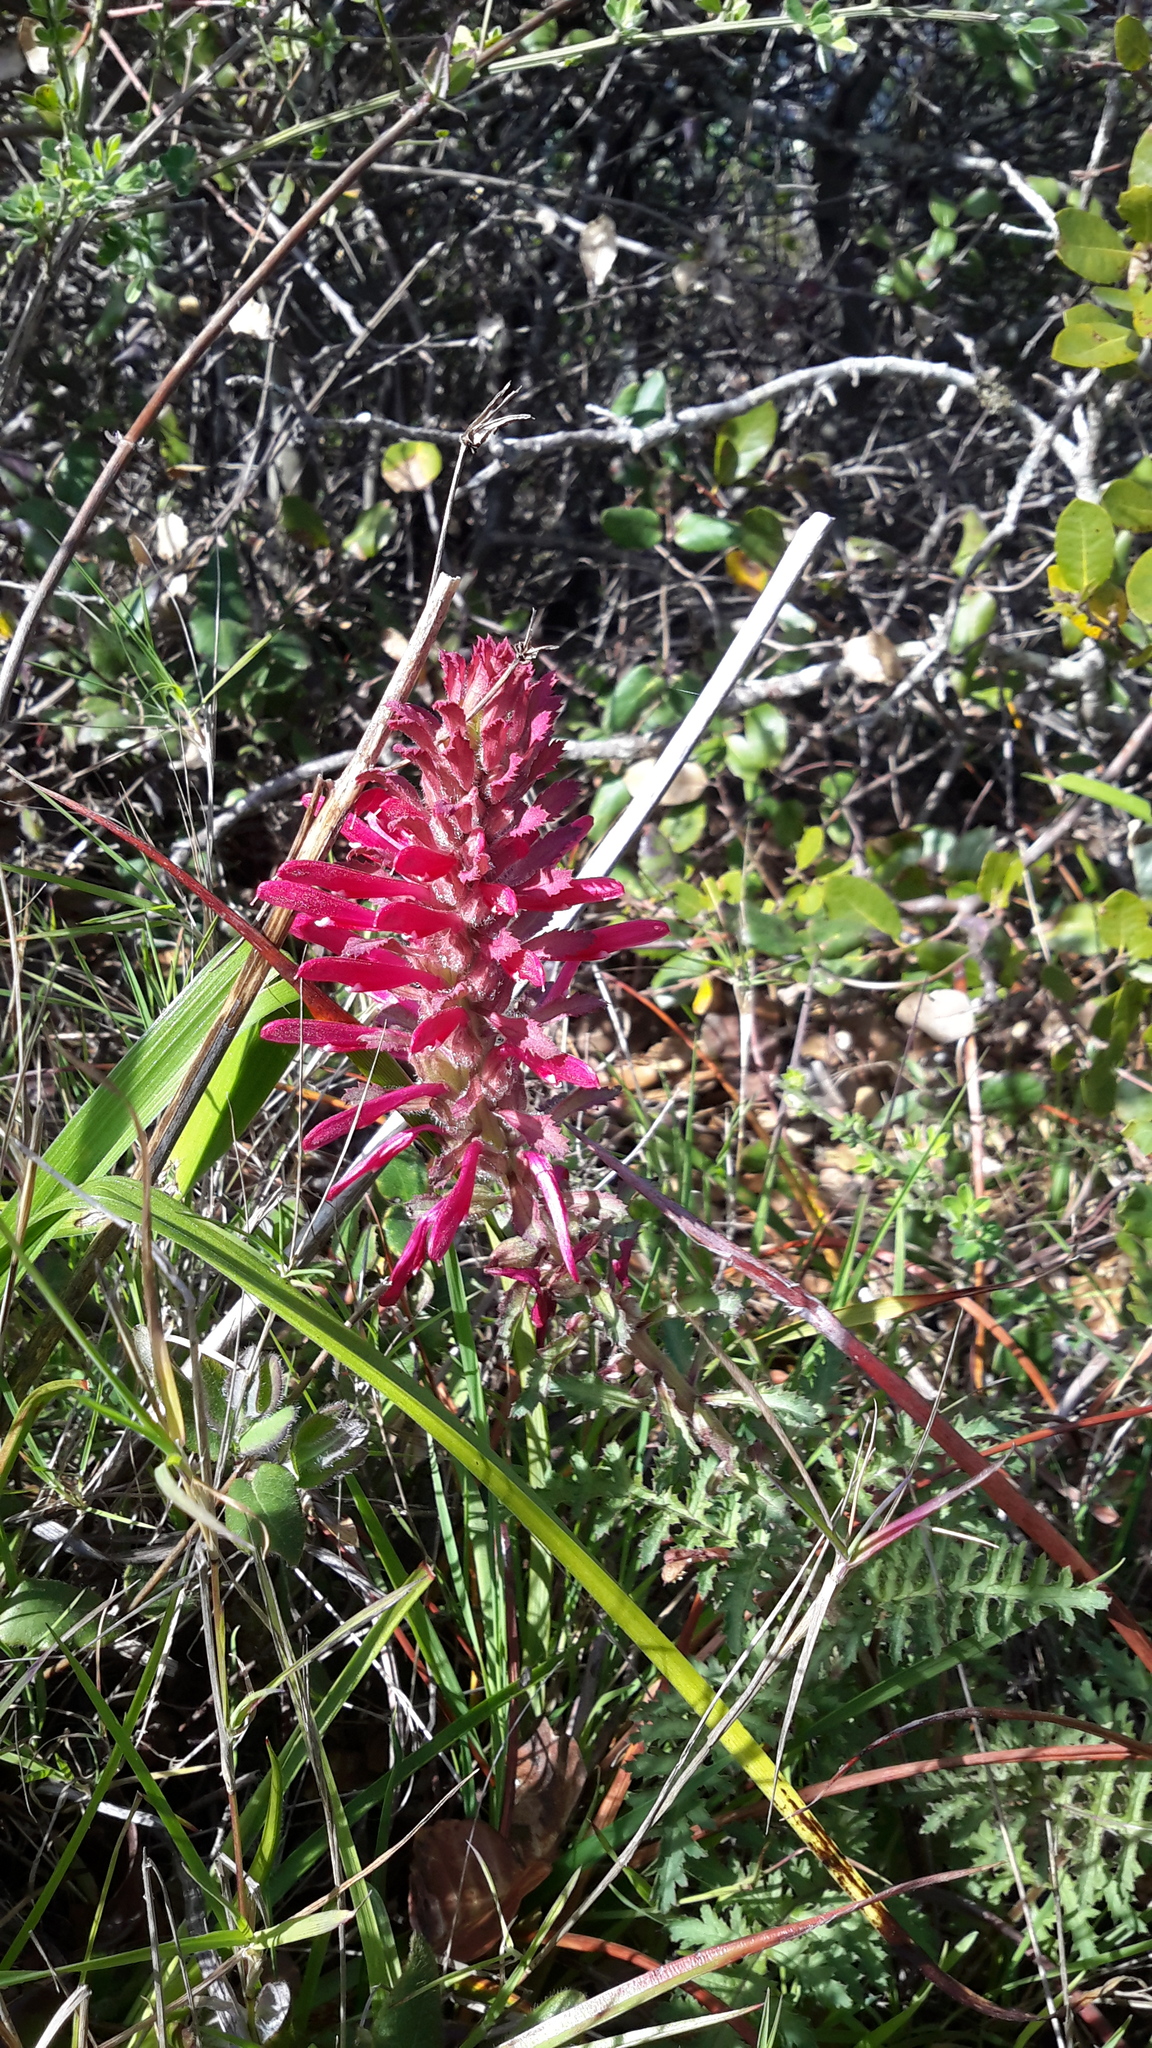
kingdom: Plantae
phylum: Tracheophyta
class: Magnoliopsida
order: Lamiales
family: Orobanchaceae
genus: Pedicularis
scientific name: Pedicularis densiflora
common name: Indian warrior
